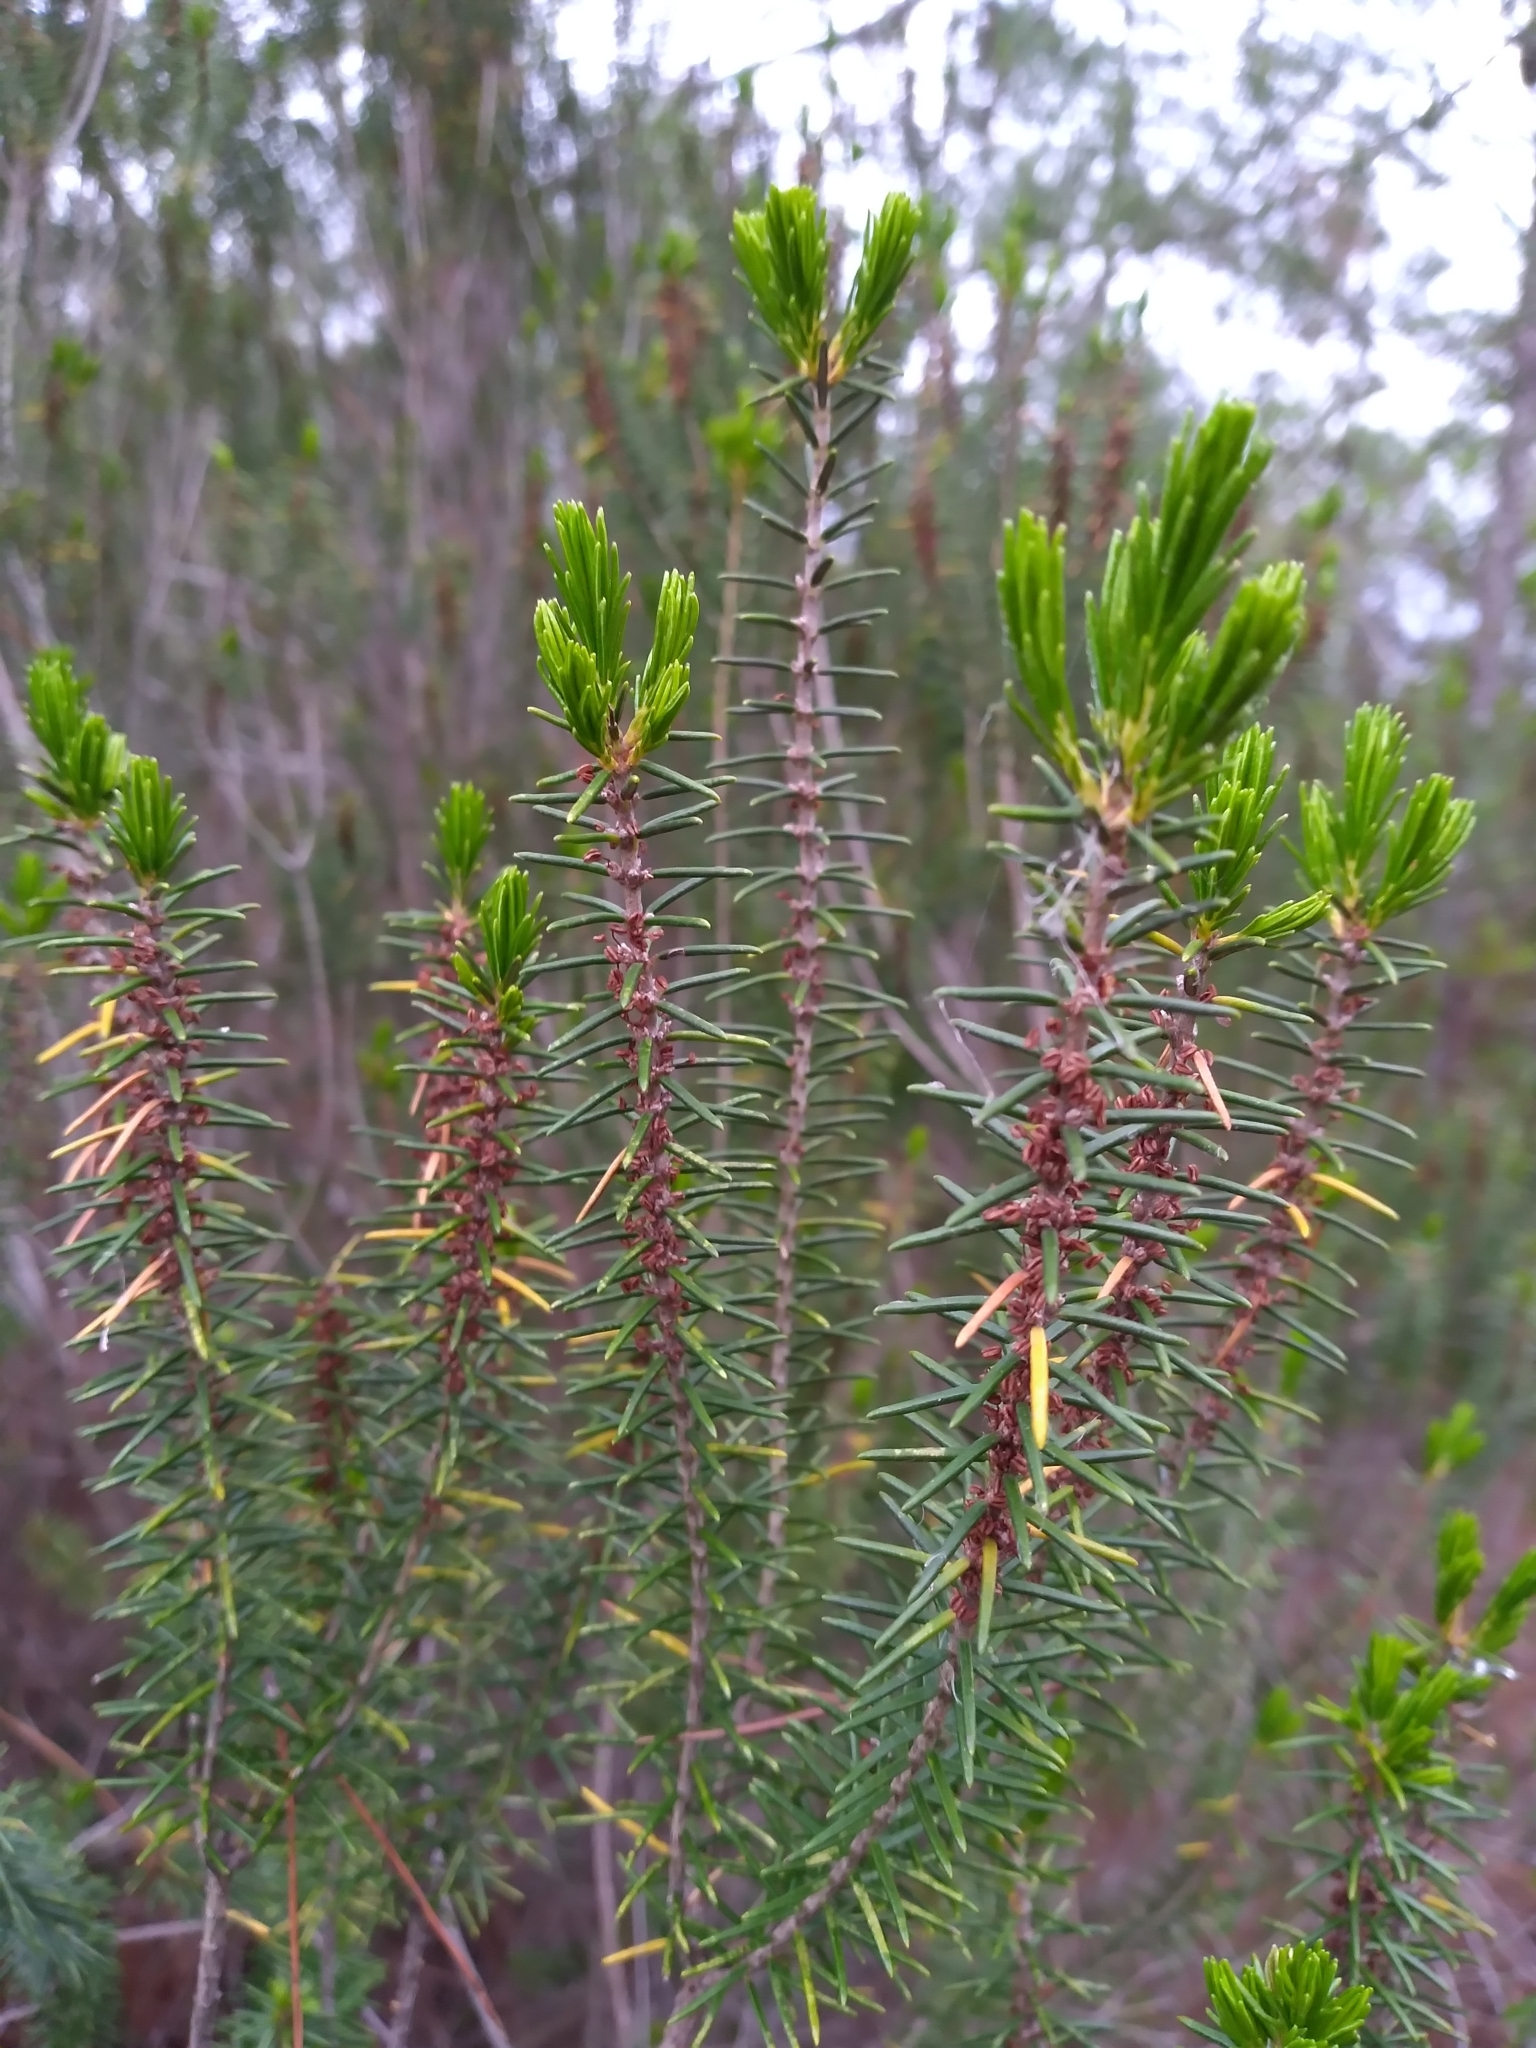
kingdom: Plantae
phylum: Tracheophyta
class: Magnoliopsida
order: Ericales
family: Ericaceae
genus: Ceratiola
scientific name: Ceratiola ericoides
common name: Sandhill-rosemary
